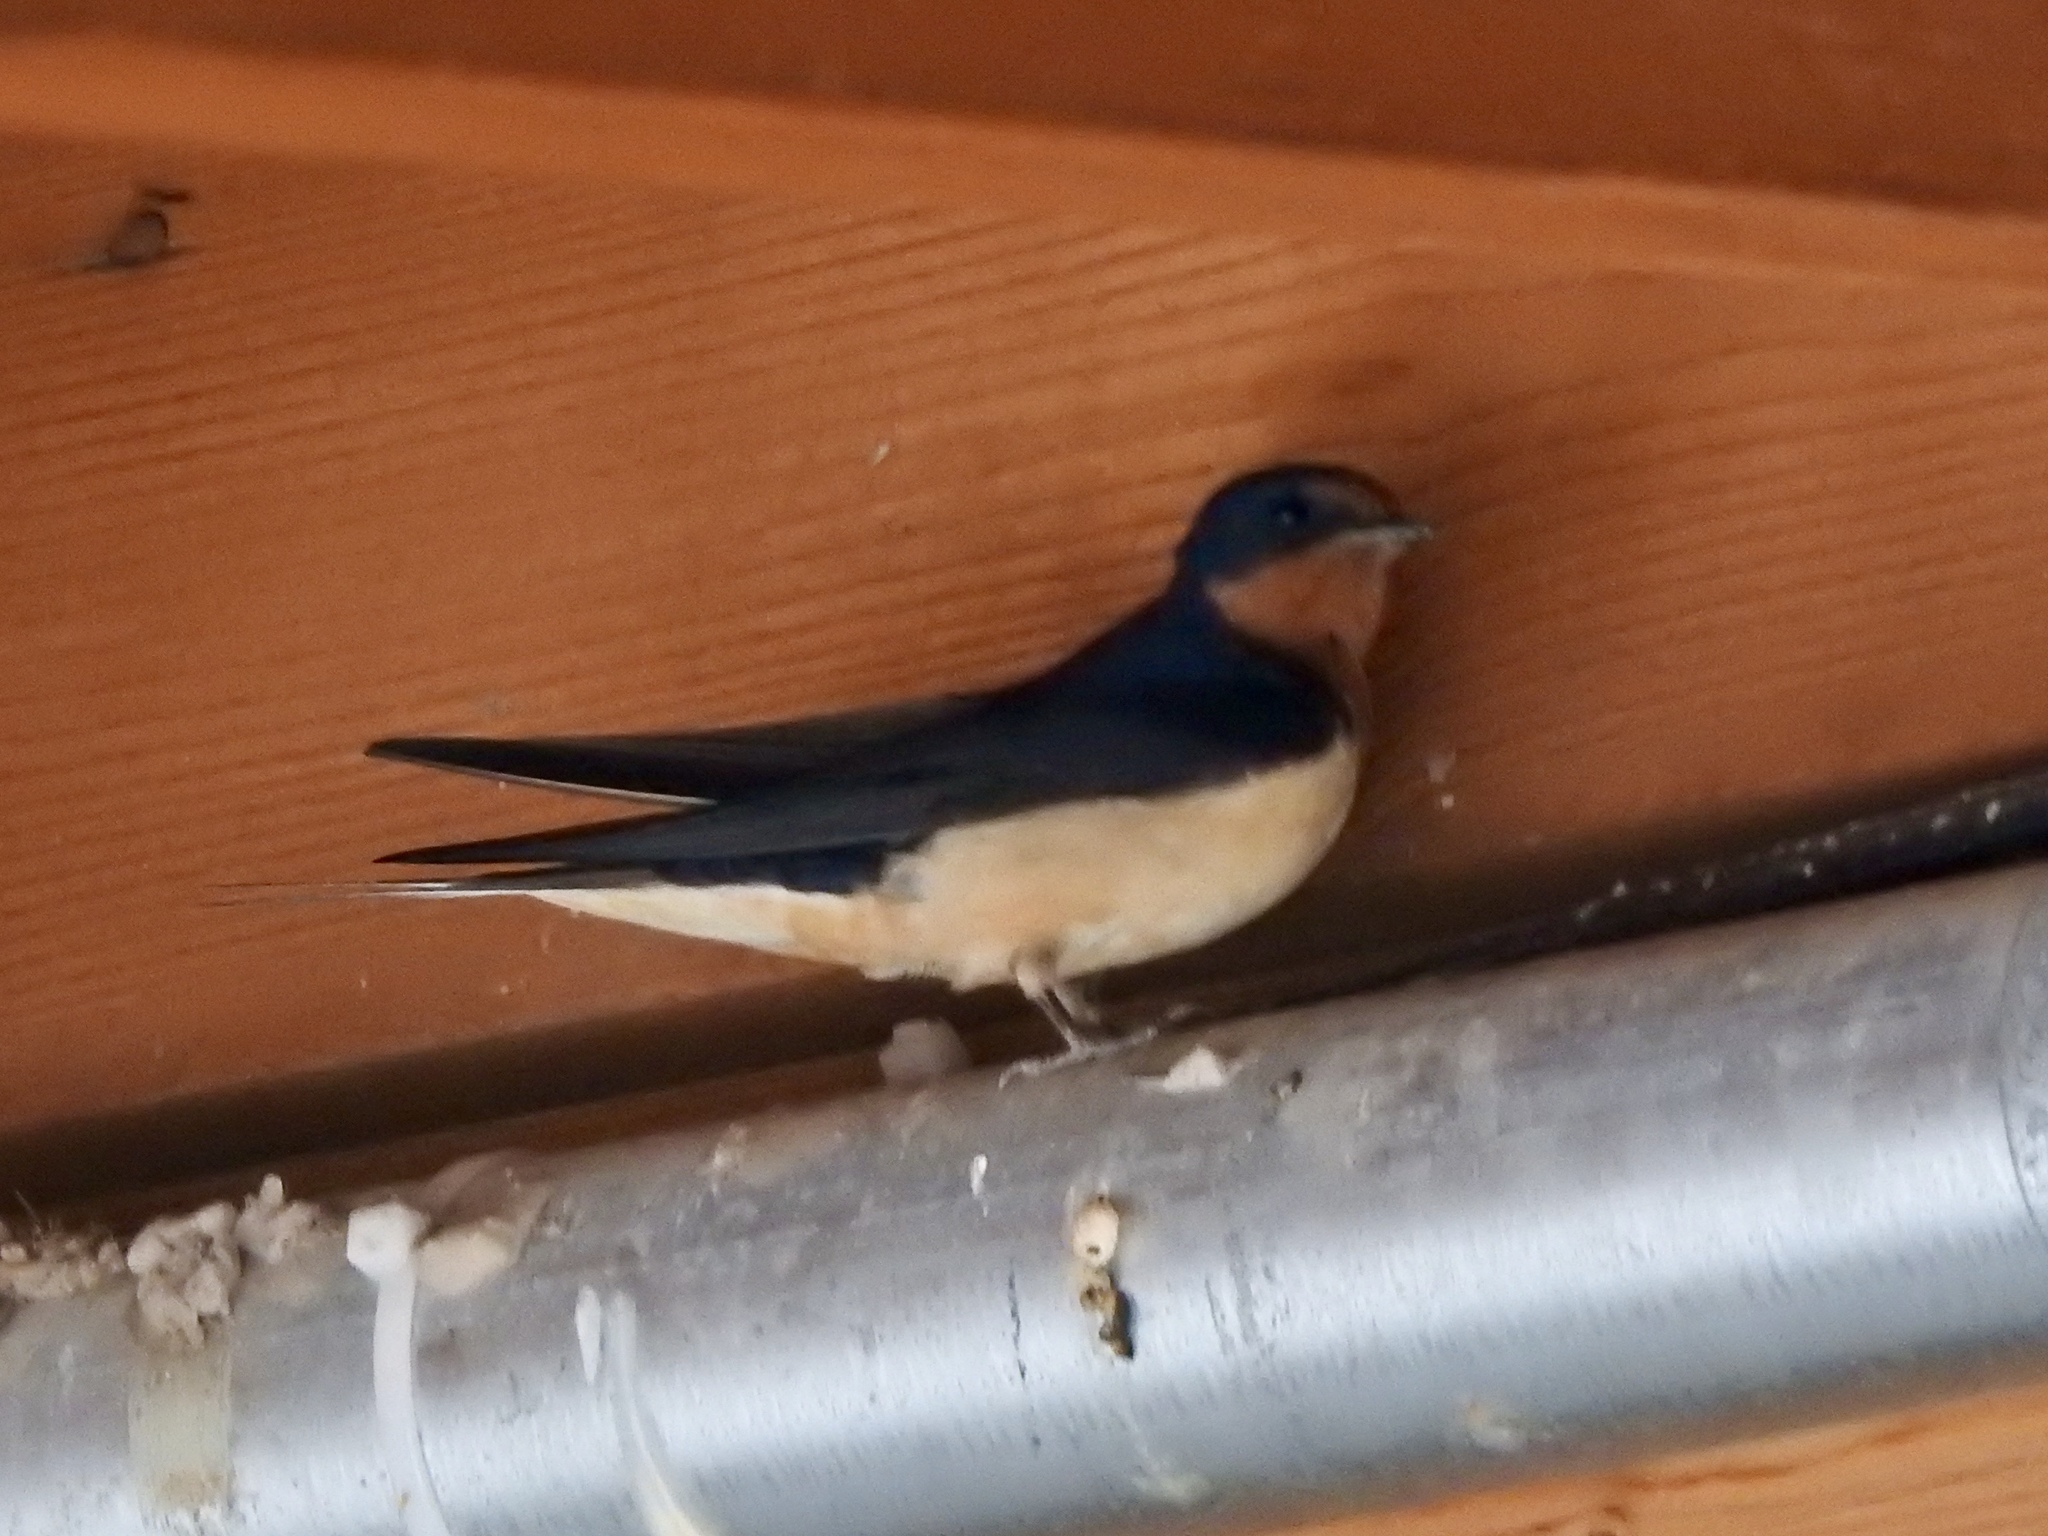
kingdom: Animalia
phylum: Chordata
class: Aves
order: Passeriformes
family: Hirundinidae
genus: Hirundo
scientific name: Hirundo rustica
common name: Barn swallow
